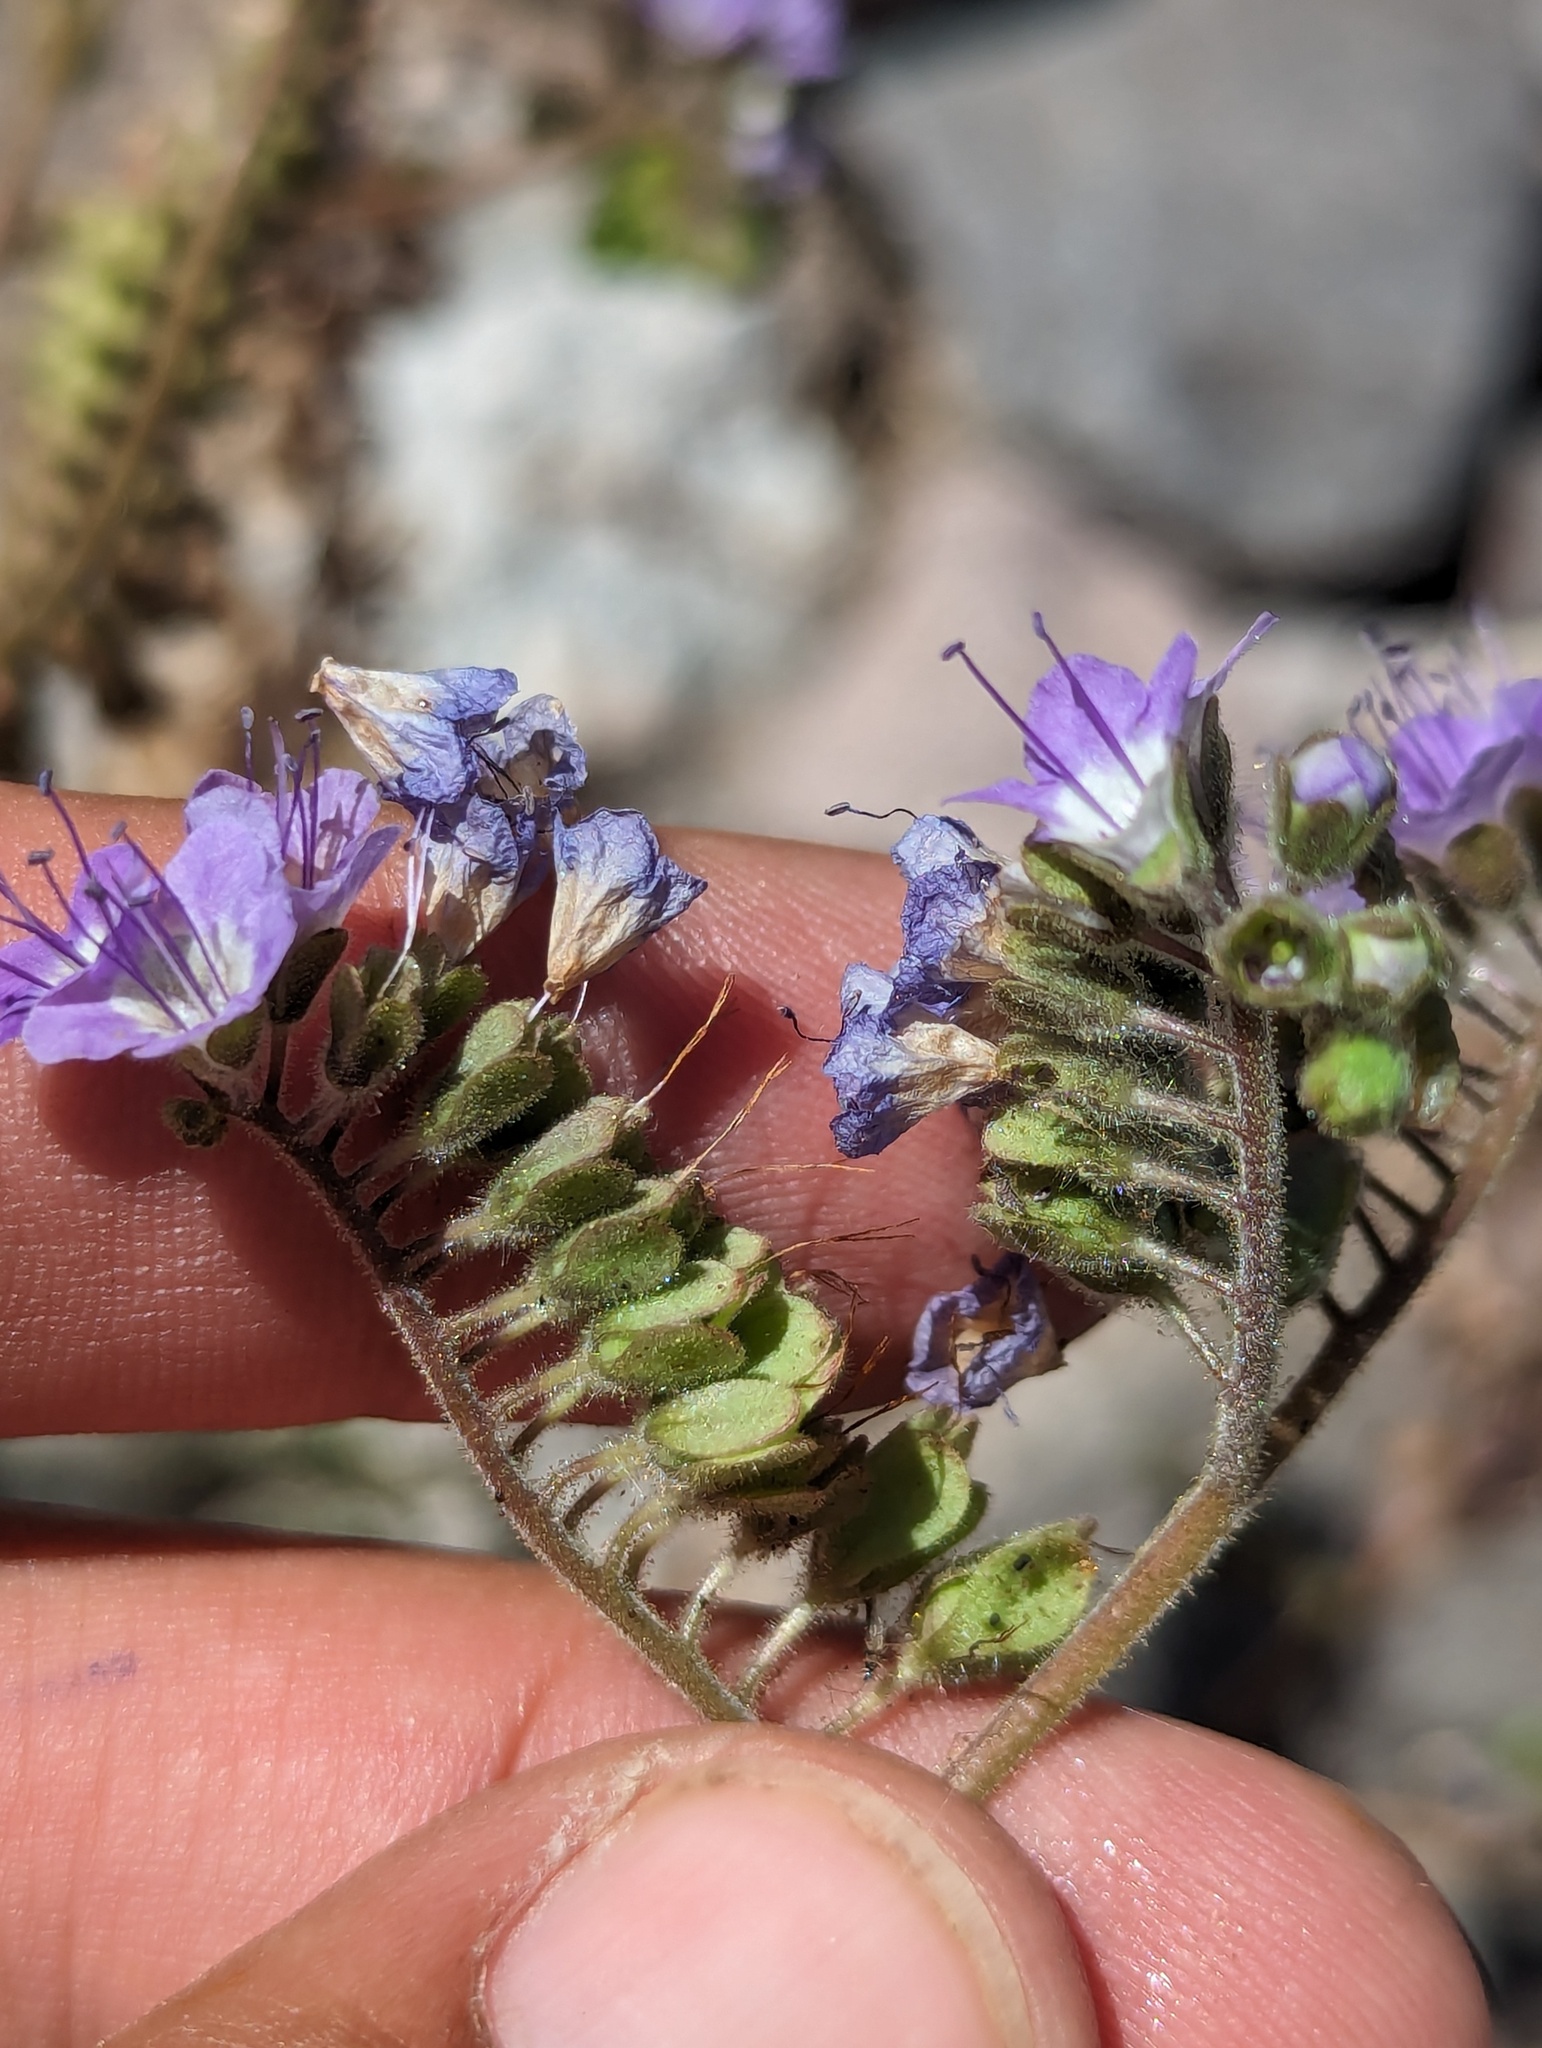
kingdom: Plantae
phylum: Tracheophyta
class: Magnoliopsida
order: Boraginales
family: Hydrophyllaceae
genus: Phacelia
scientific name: Phacelia scariosa
